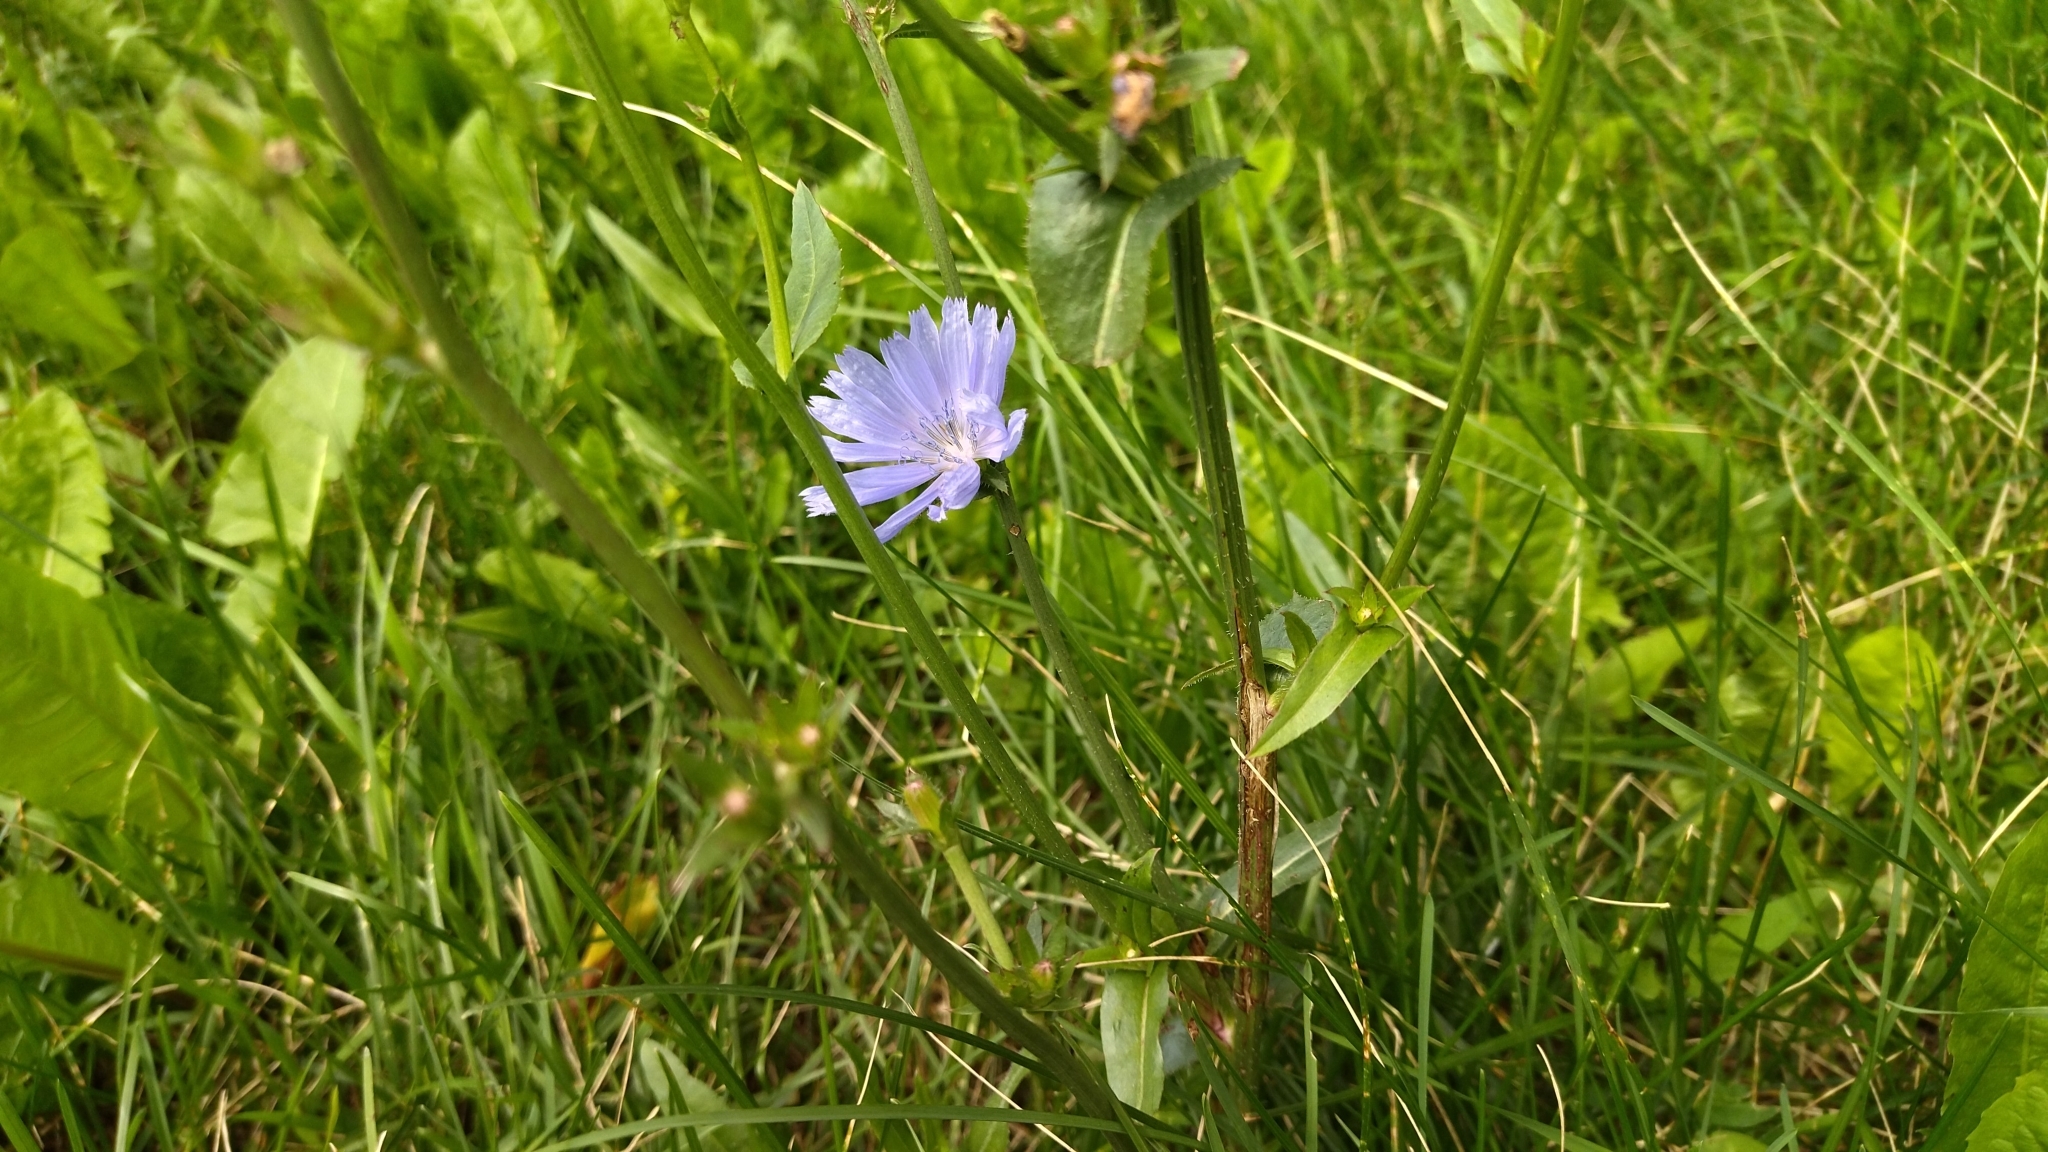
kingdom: Plantae
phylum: Tracheophyta
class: Magnoliopsida
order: Asterales
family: Asteraceae
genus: Cichorium
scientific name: Cichorium intybus
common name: Chicory
